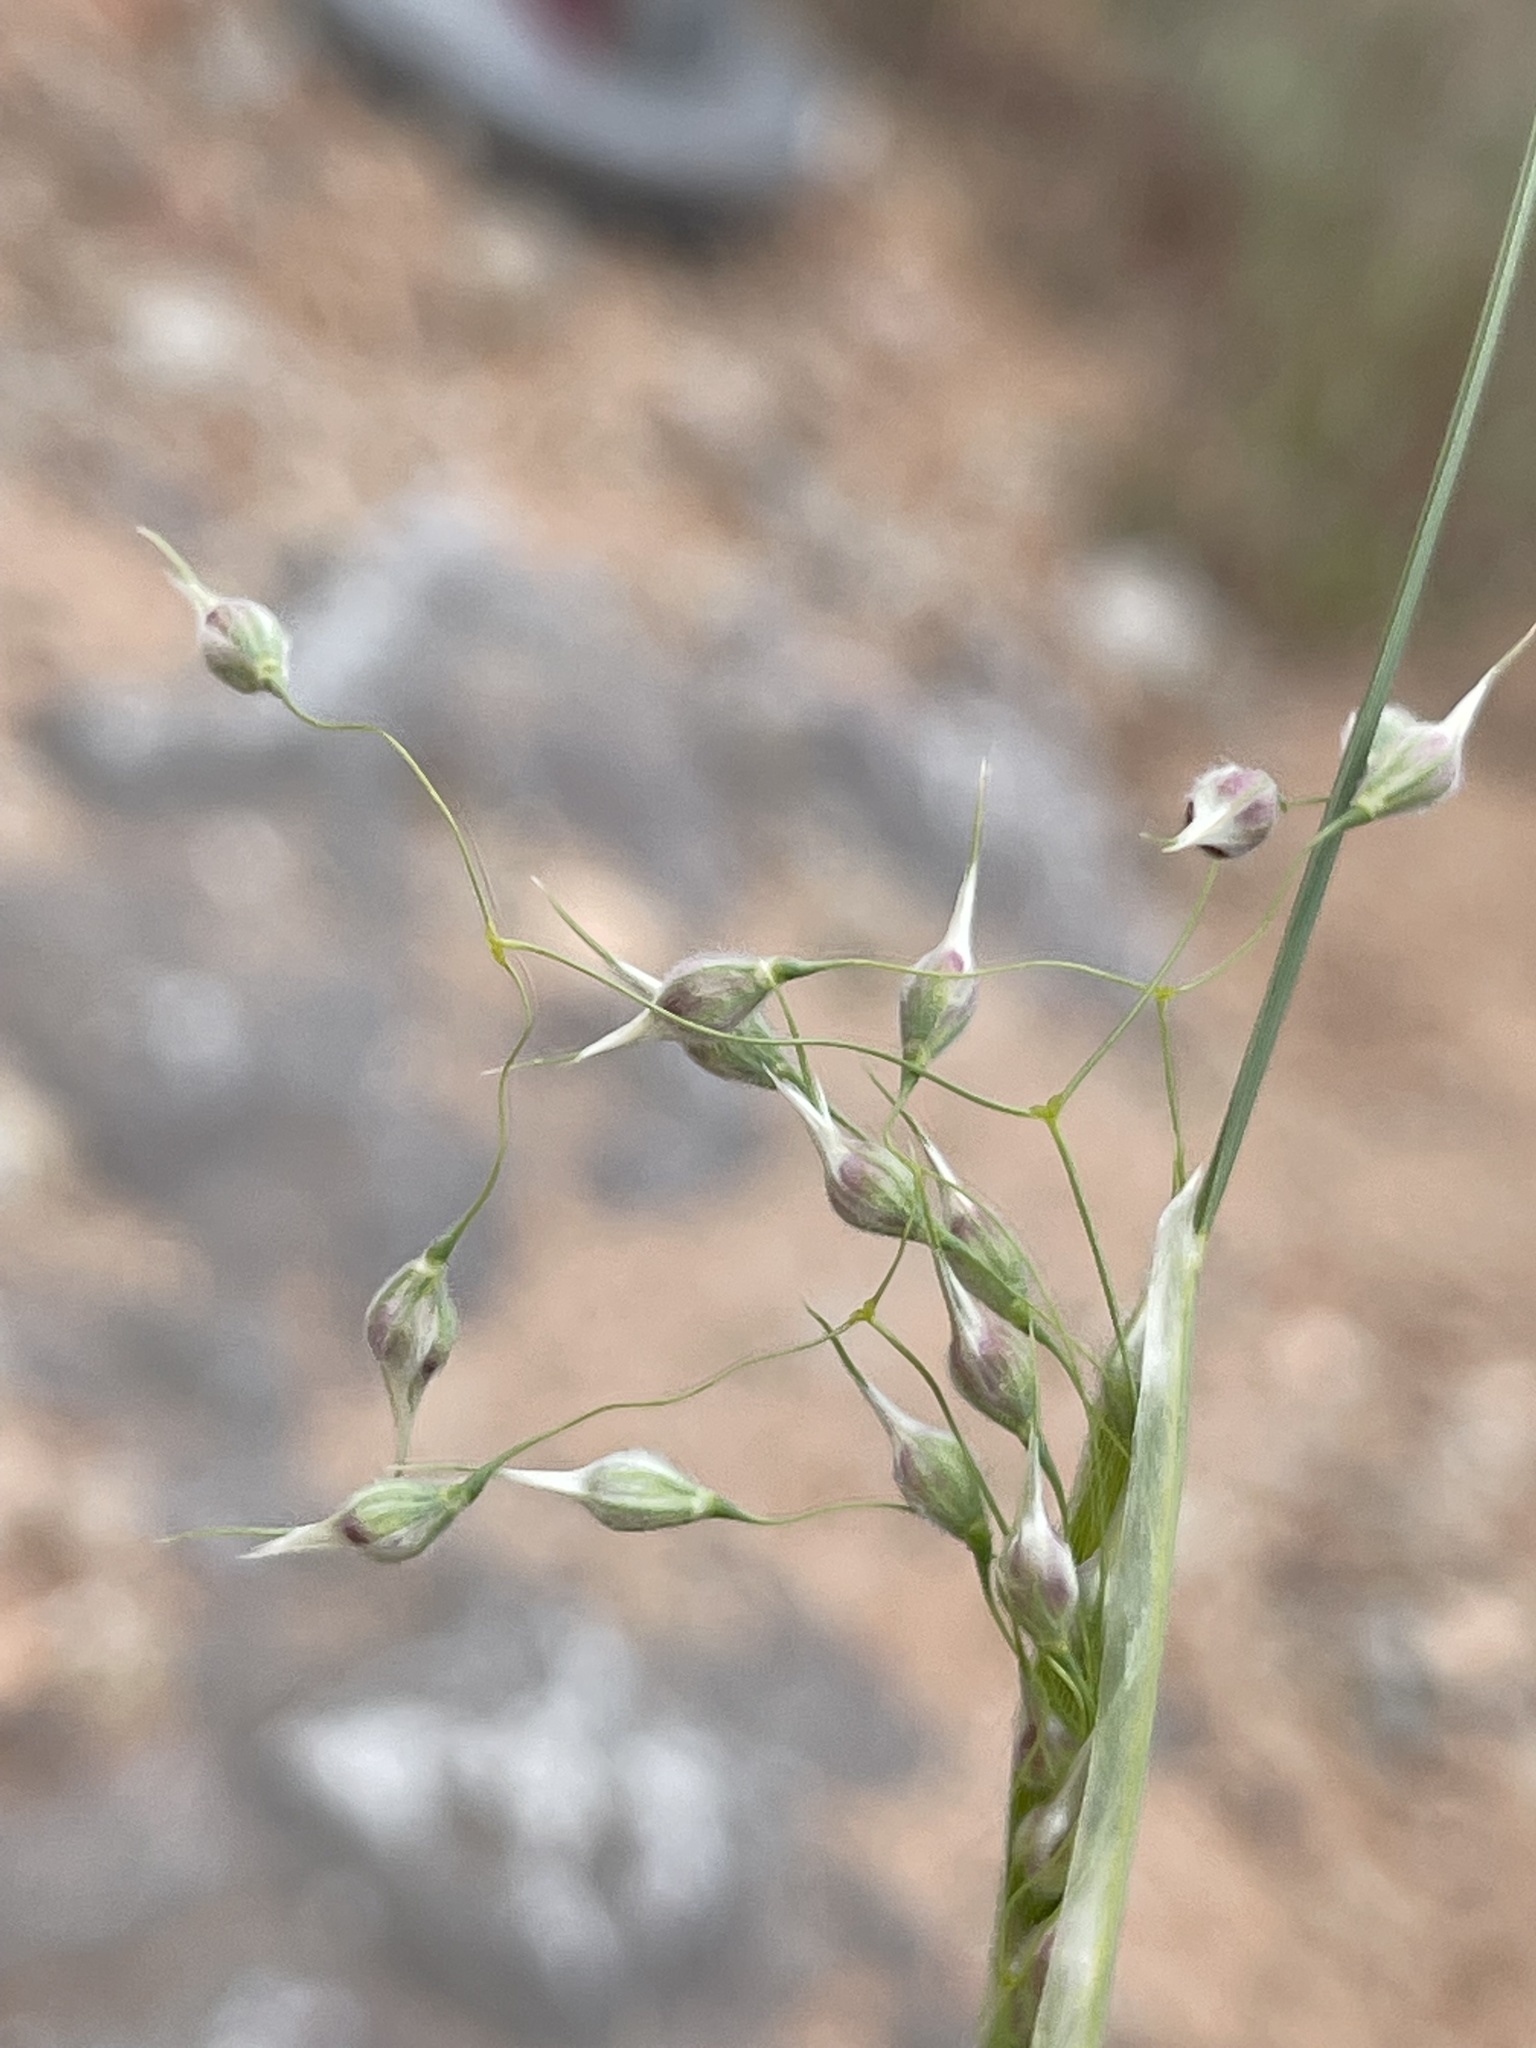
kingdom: Plantae
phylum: Tracheophyta
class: Liliopsida
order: Poales
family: Poaceae
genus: Eriocoma
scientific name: Eriocoma hymenoides
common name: Indian mountain ricegrass
